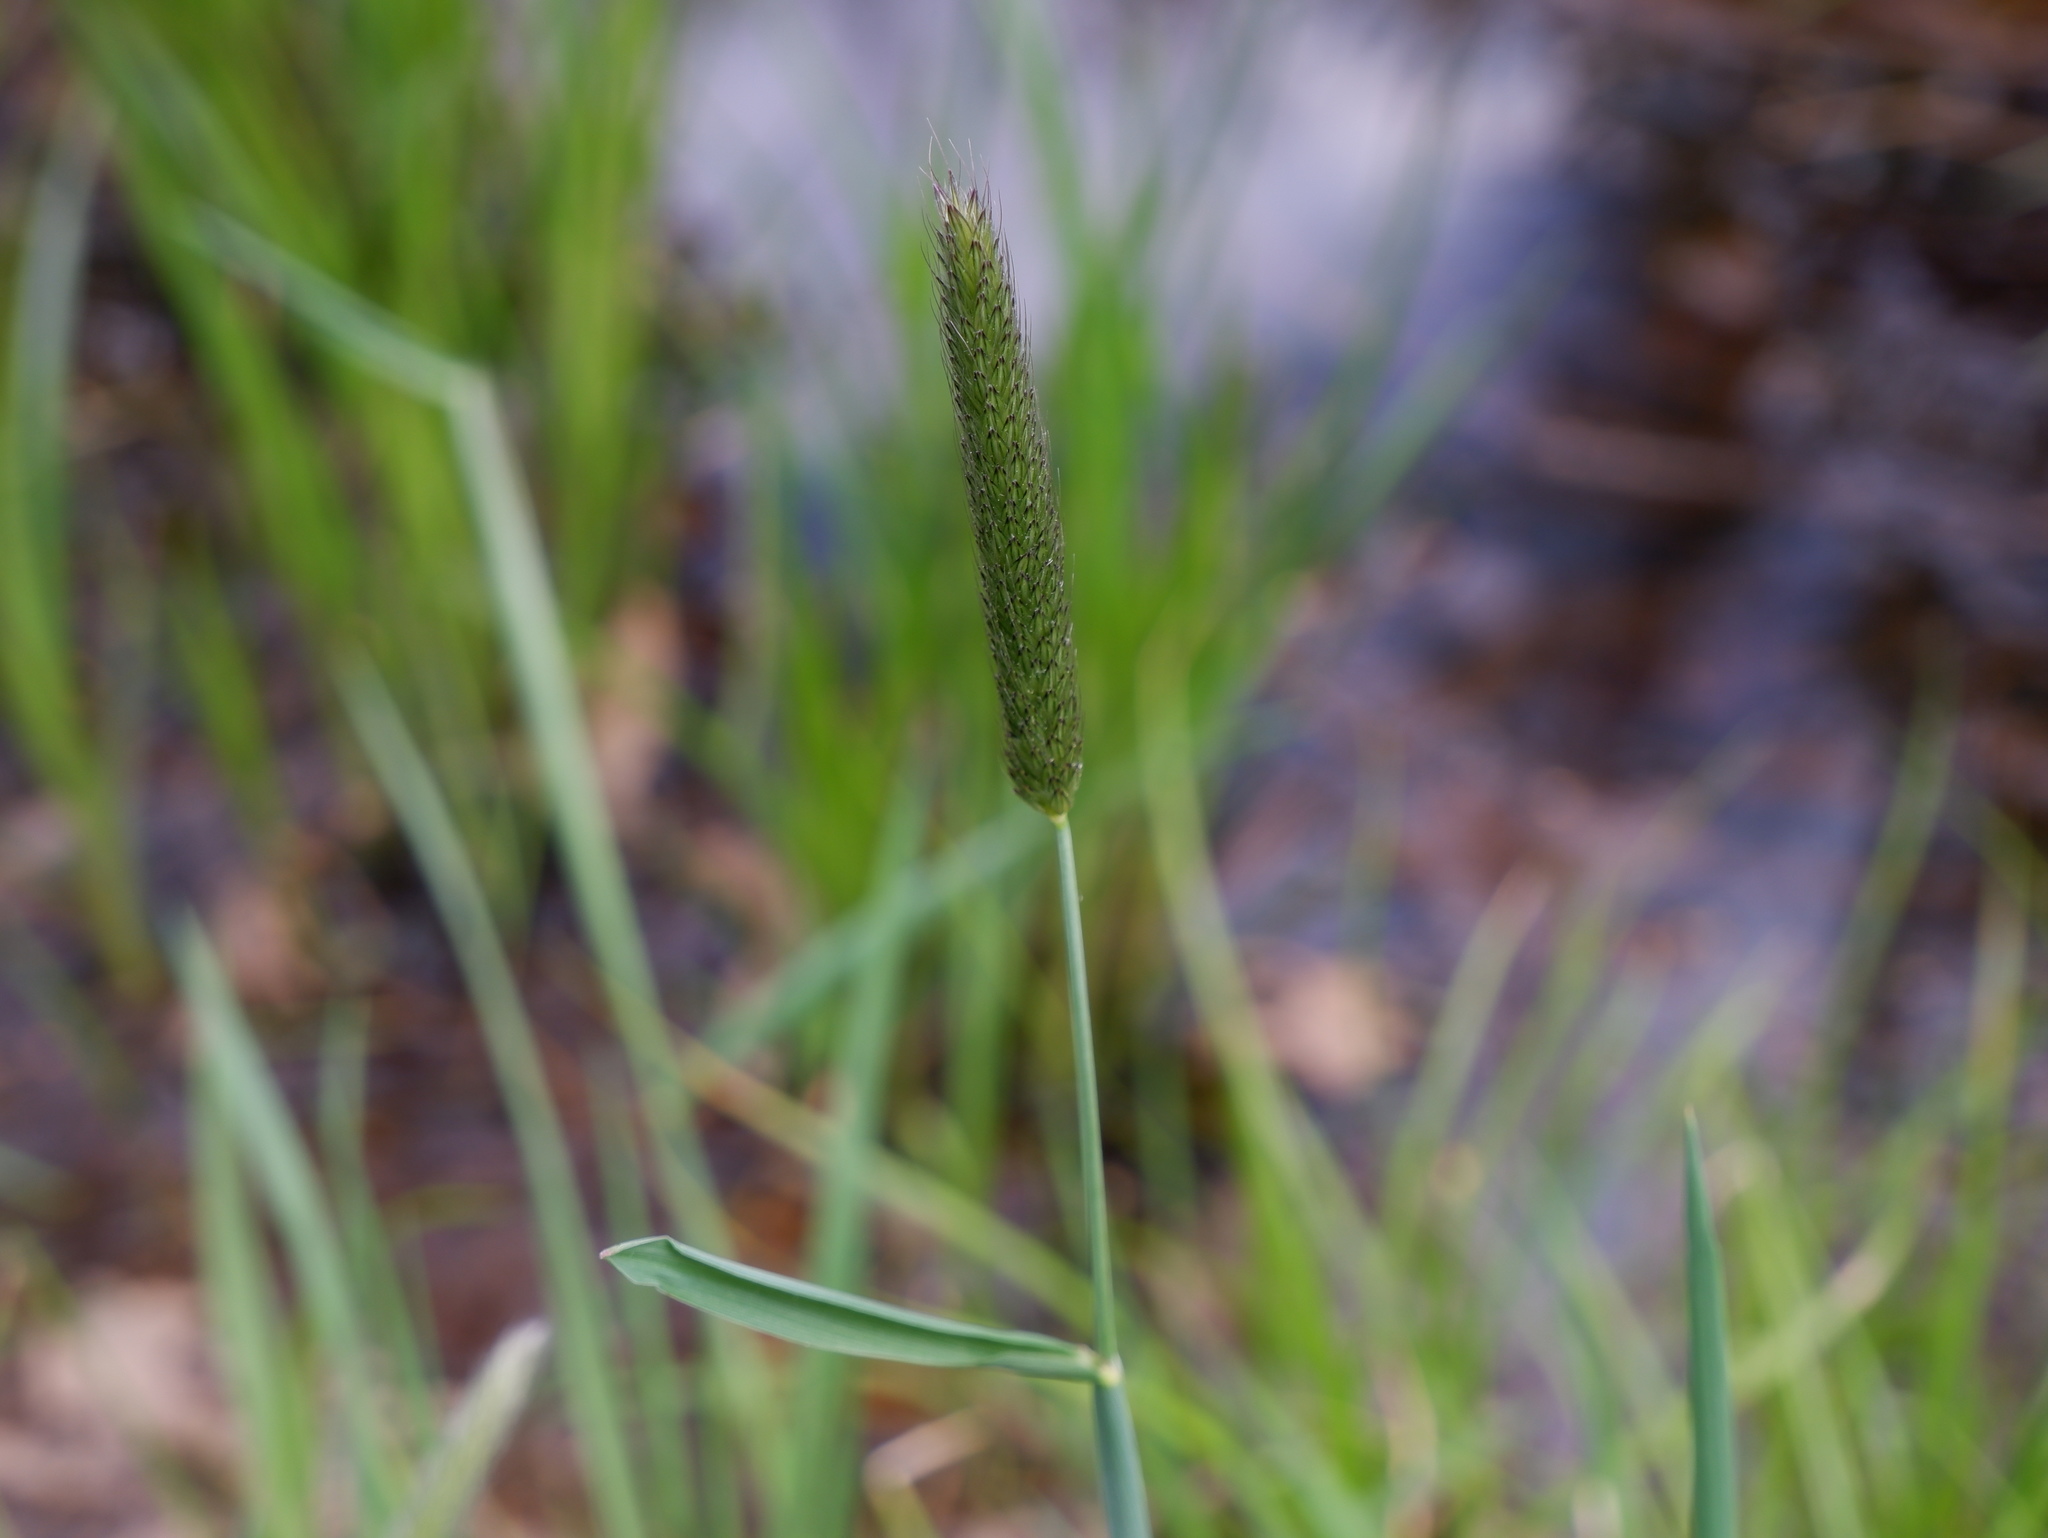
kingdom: Plantae
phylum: Tracheophyta
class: Liliopsida
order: Poales
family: Poaceae
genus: Alopecurus
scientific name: Alopecurus pratensis
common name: Meadow foxtail
